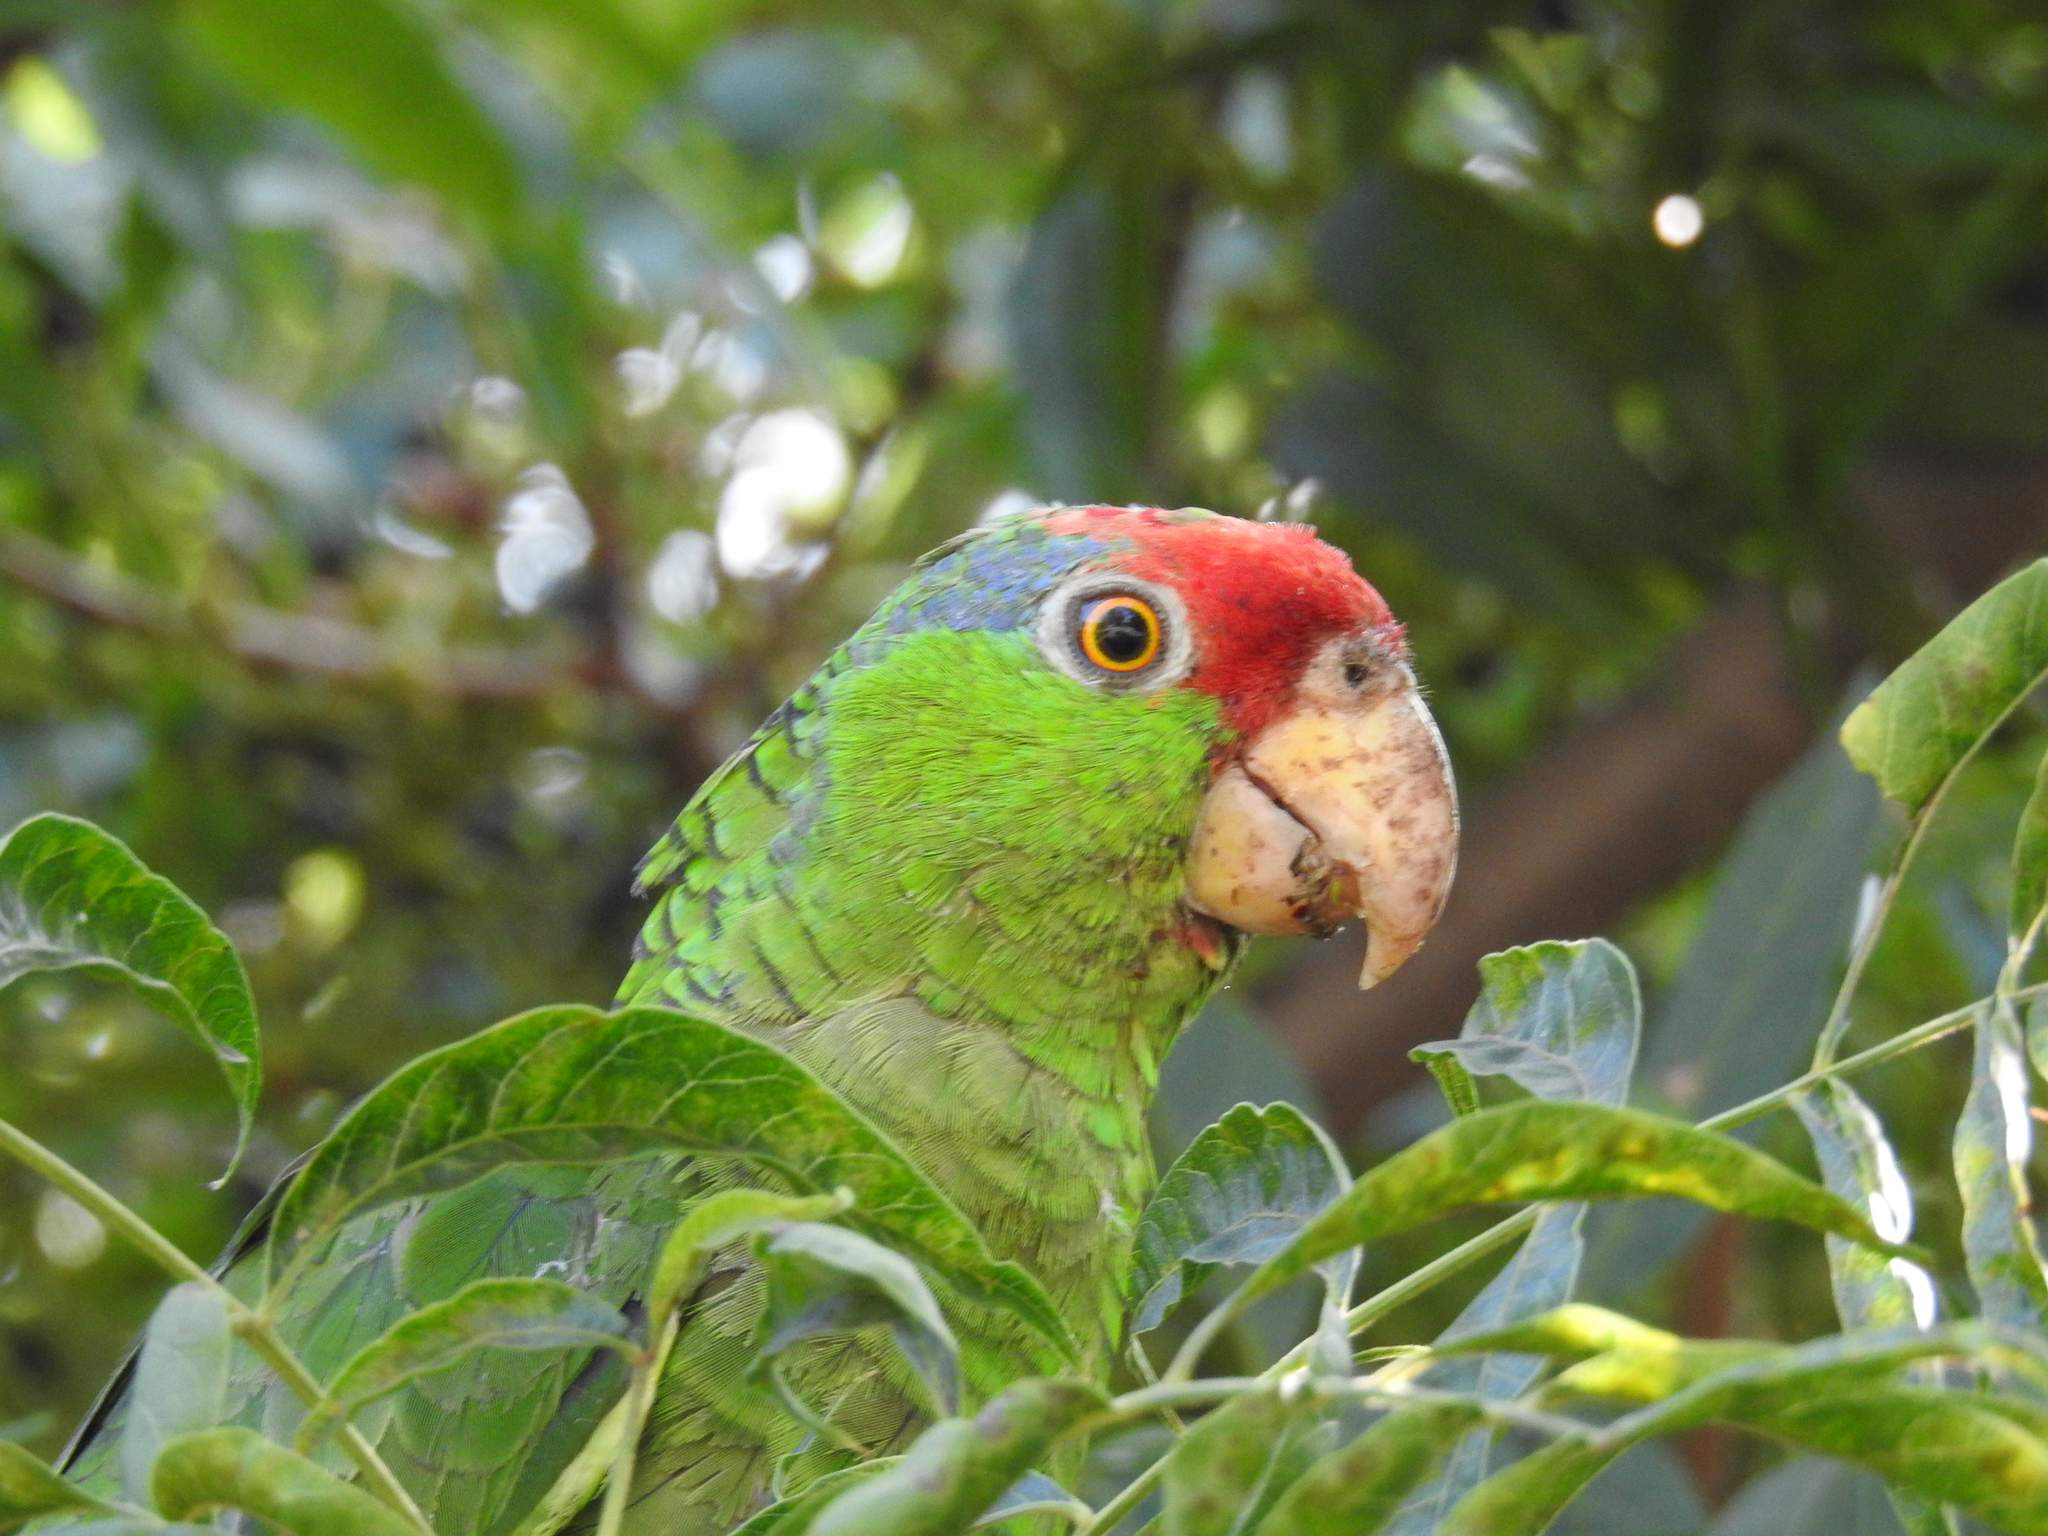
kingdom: Animalia
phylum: Chordata
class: Aves
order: Psittaciformes
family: Psittacidae
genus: Amazona
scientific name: Amazona viridigenalis
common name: Red-crowned amazon
